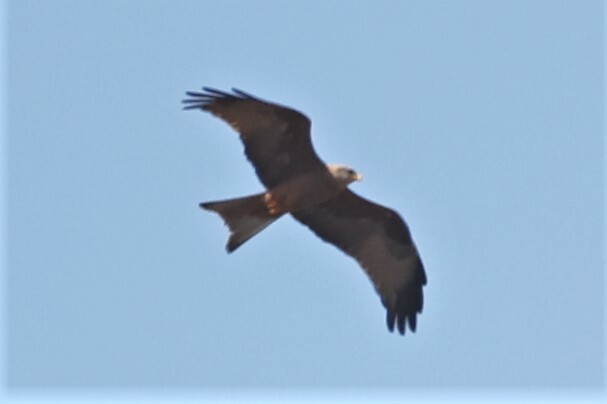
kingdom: Animalia
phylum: Chordata
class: Aves
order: Accipitriformes
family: Accipitridae
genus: Milvus
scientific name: Milvus migrans
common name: Black kite
